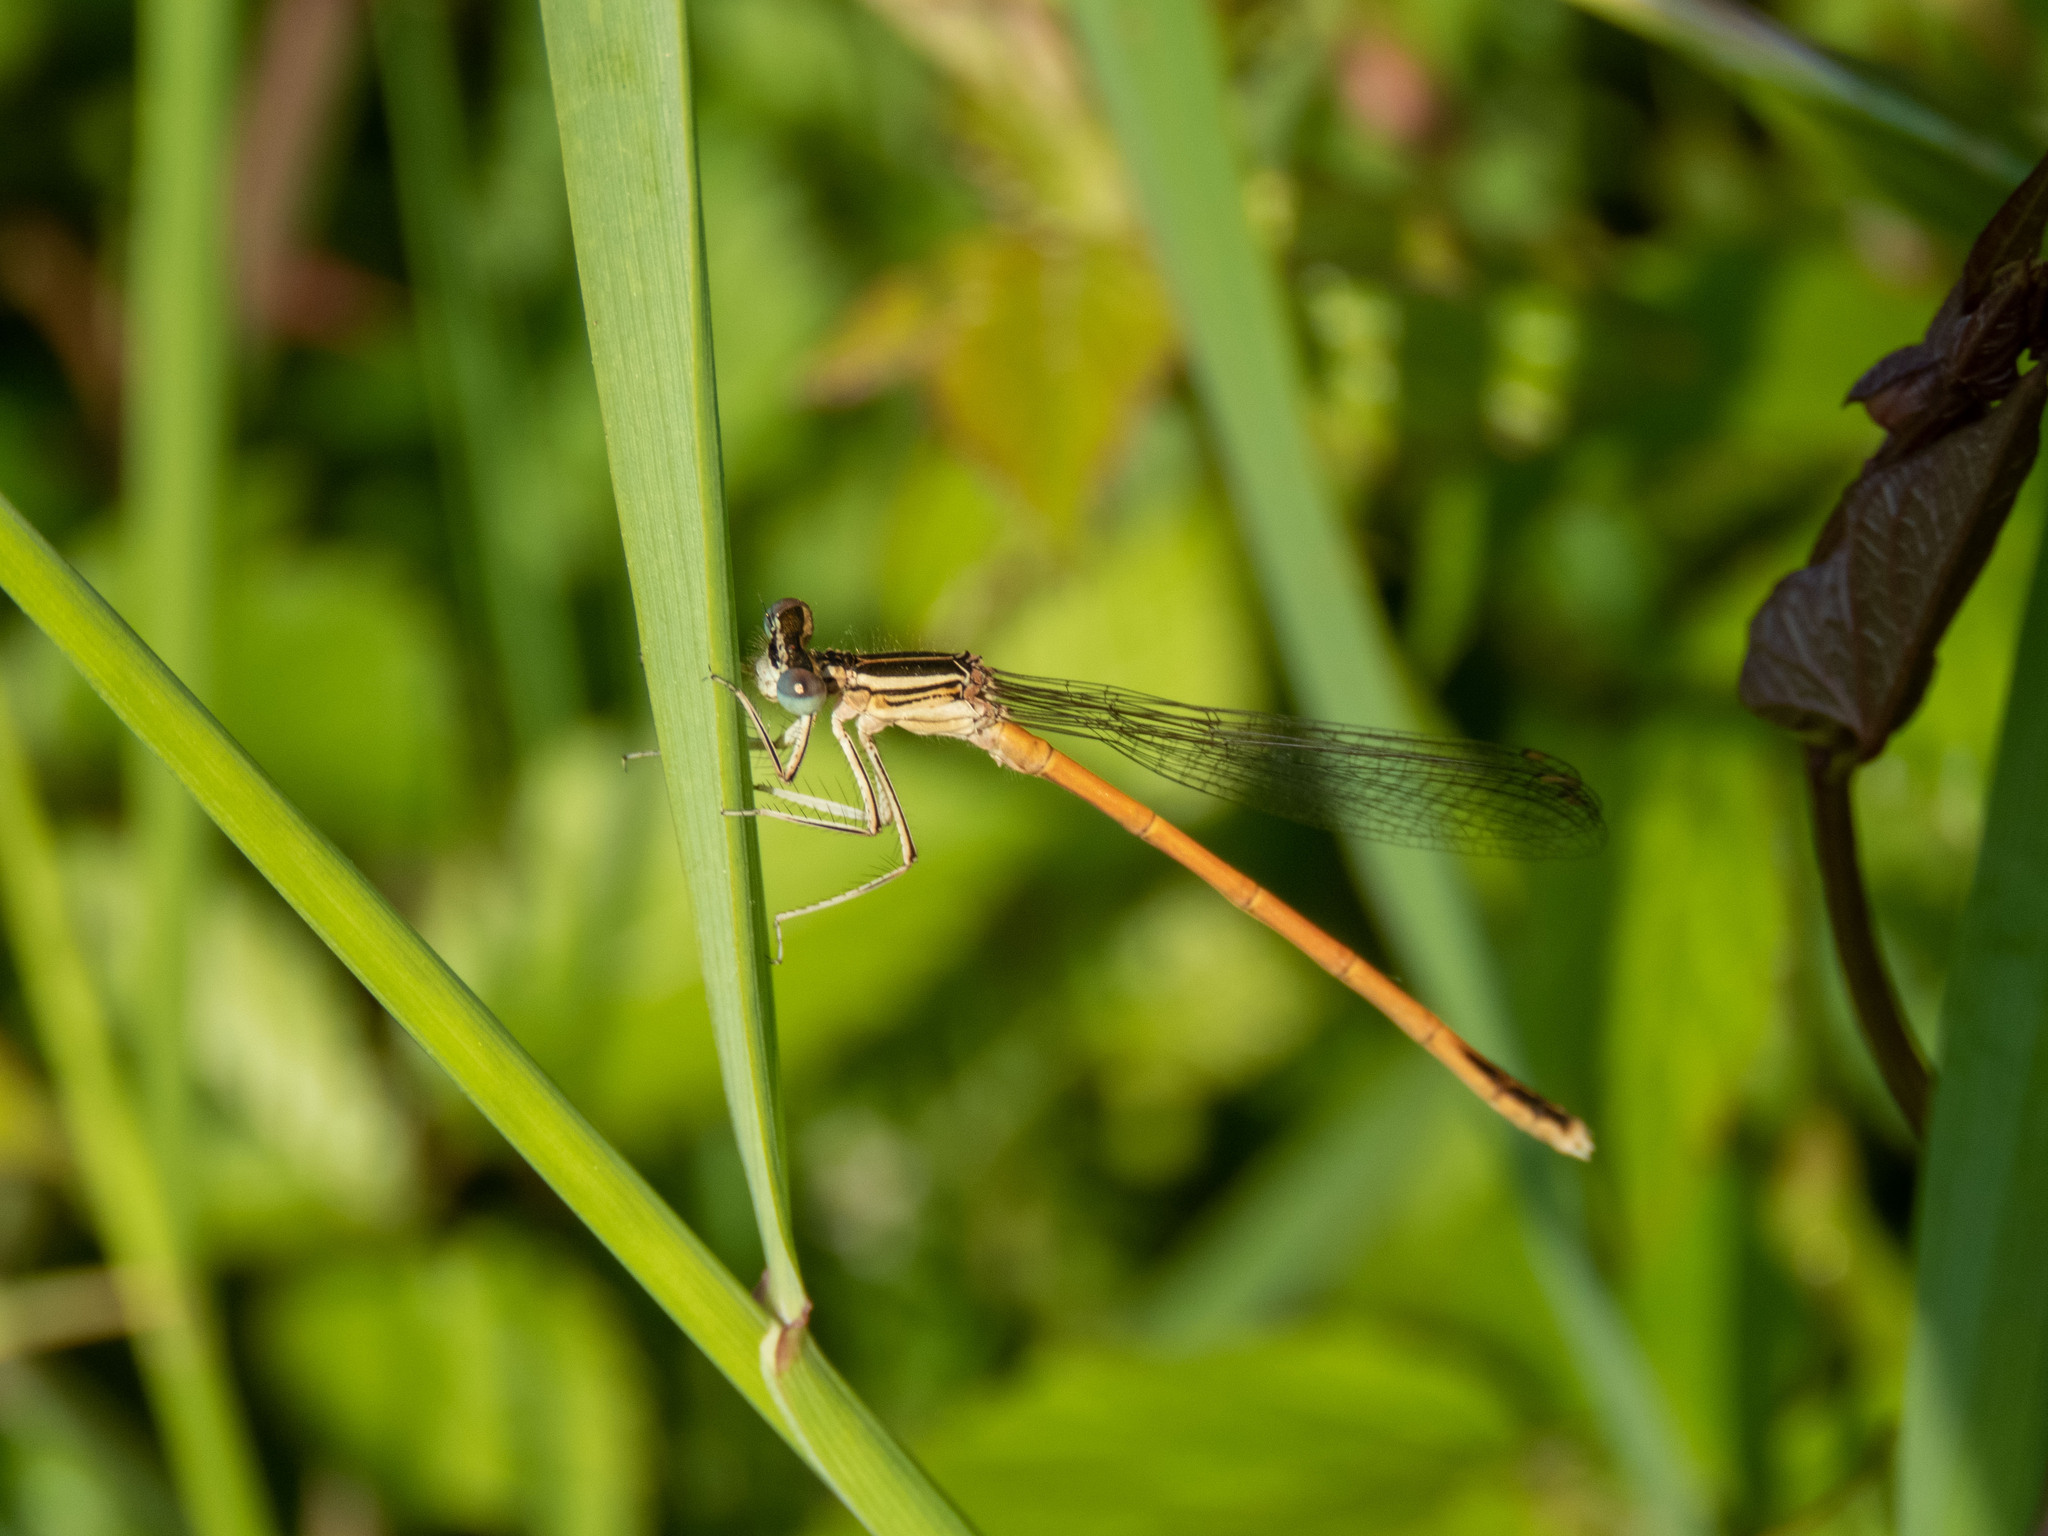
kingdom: Animalia
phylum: Arthropoda
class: Insecta
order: Odonata
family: Platycnemididae
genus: Platycnemis
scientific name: Platycnemis acutipennis
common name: Orange featherleg
